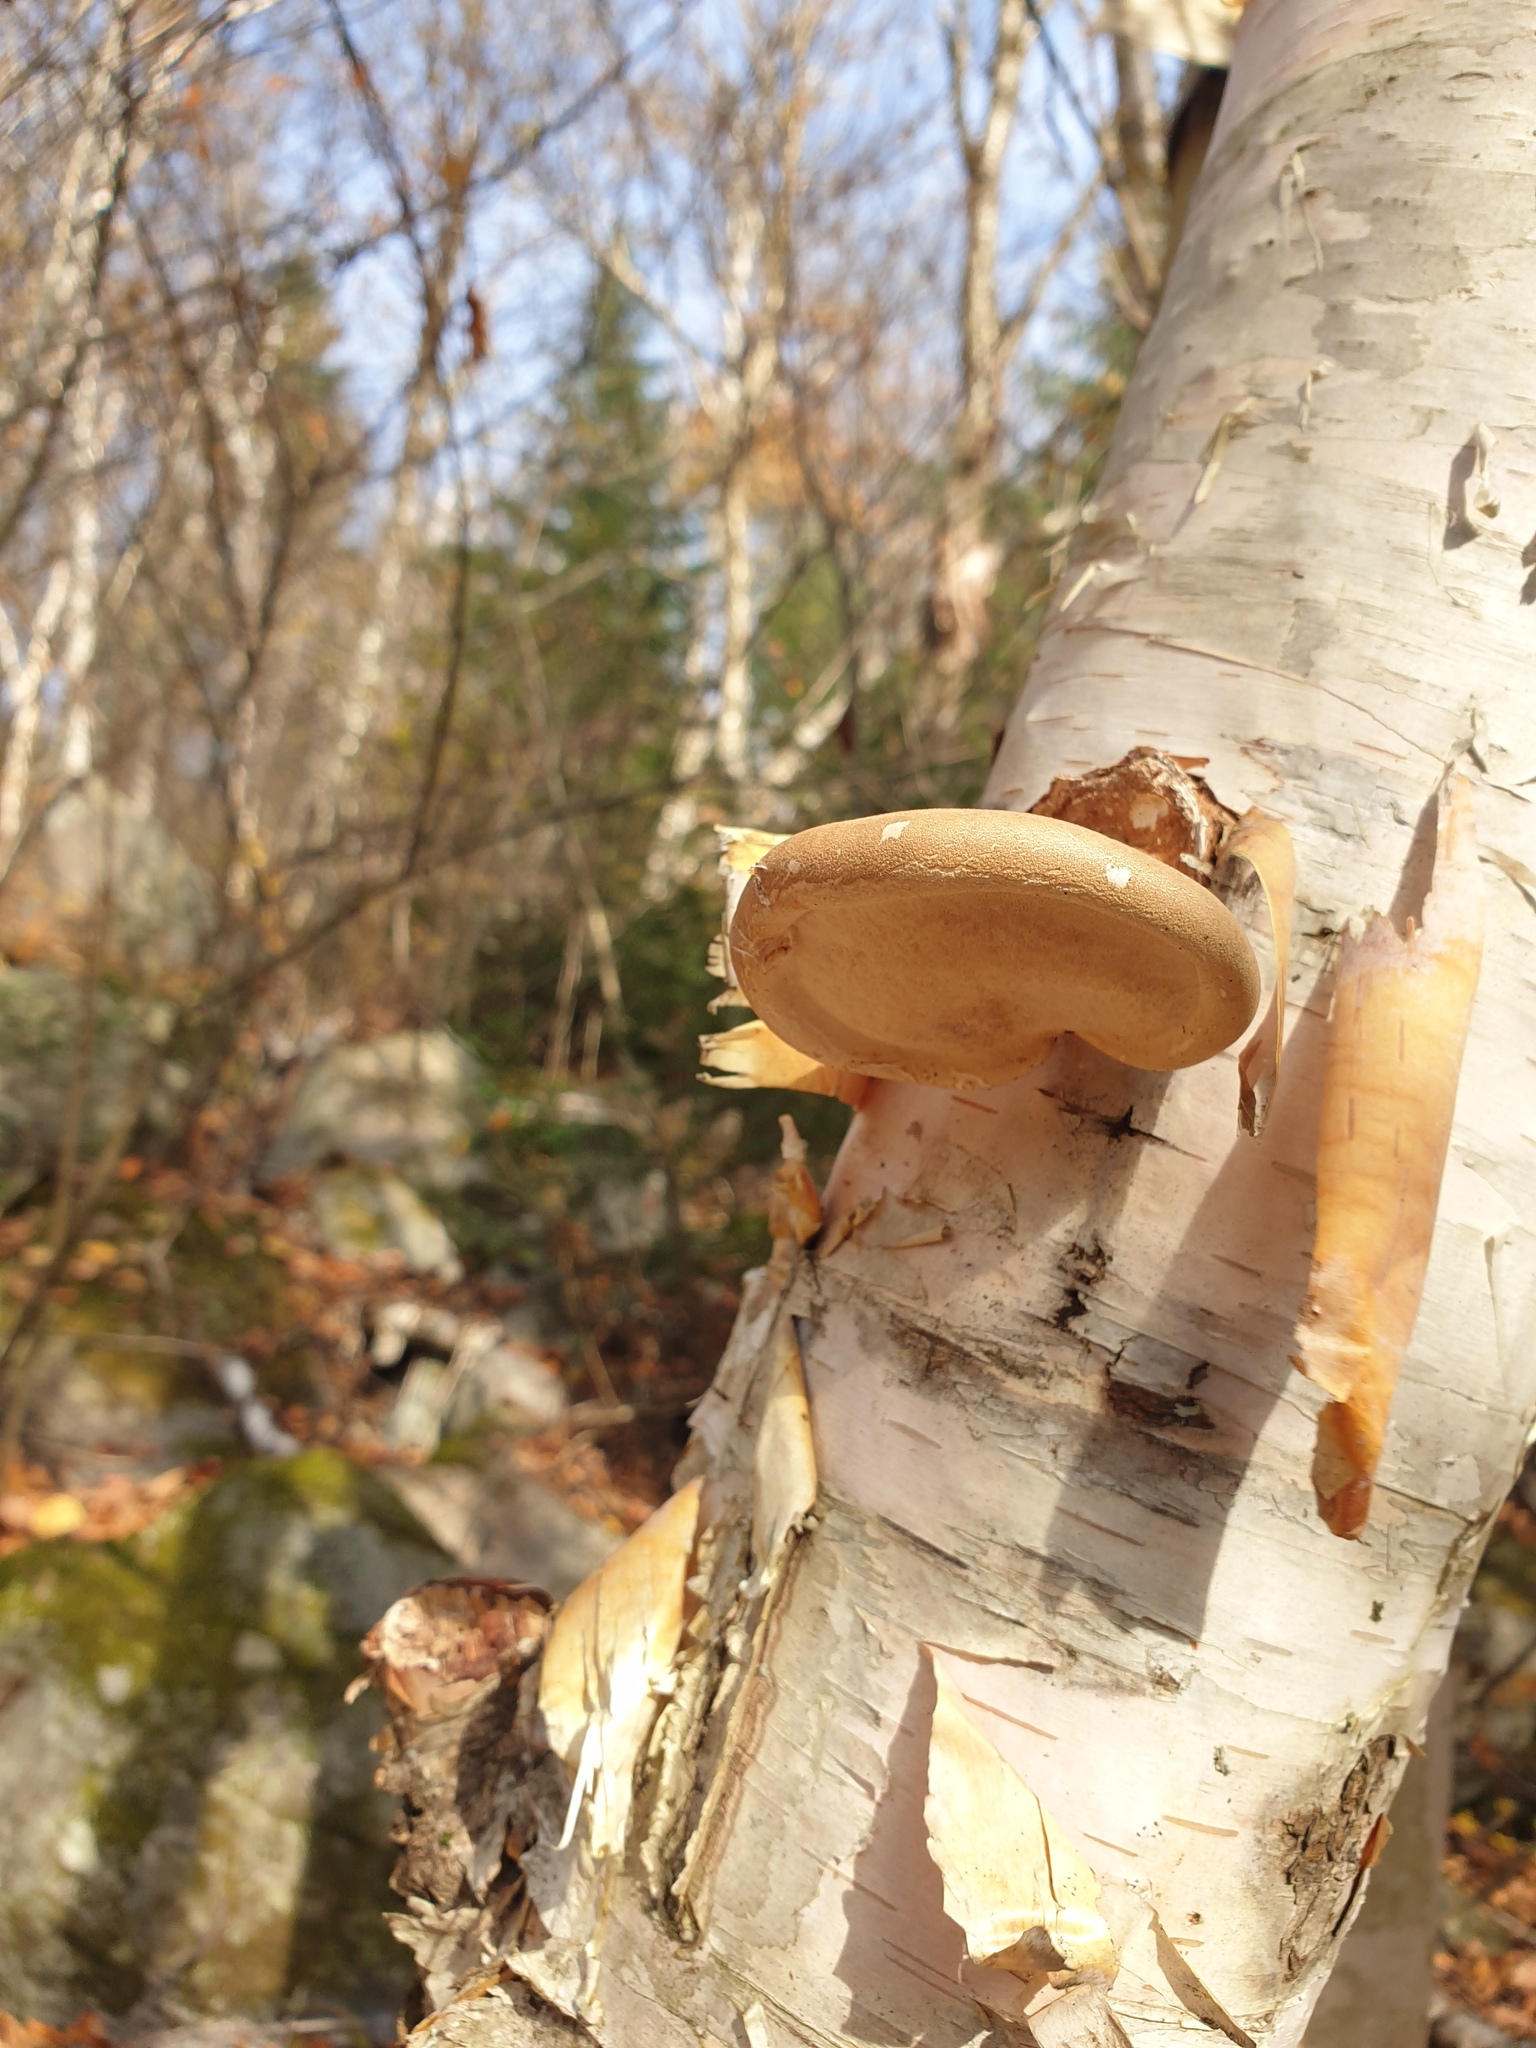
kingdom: Fungi
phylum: Basidiomycota
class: Agaricomycetes
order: Polyporales
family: Fomitopsidaceae
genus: Fomitopsis
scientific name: Fomitopsis betulina
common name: Birch polypore
